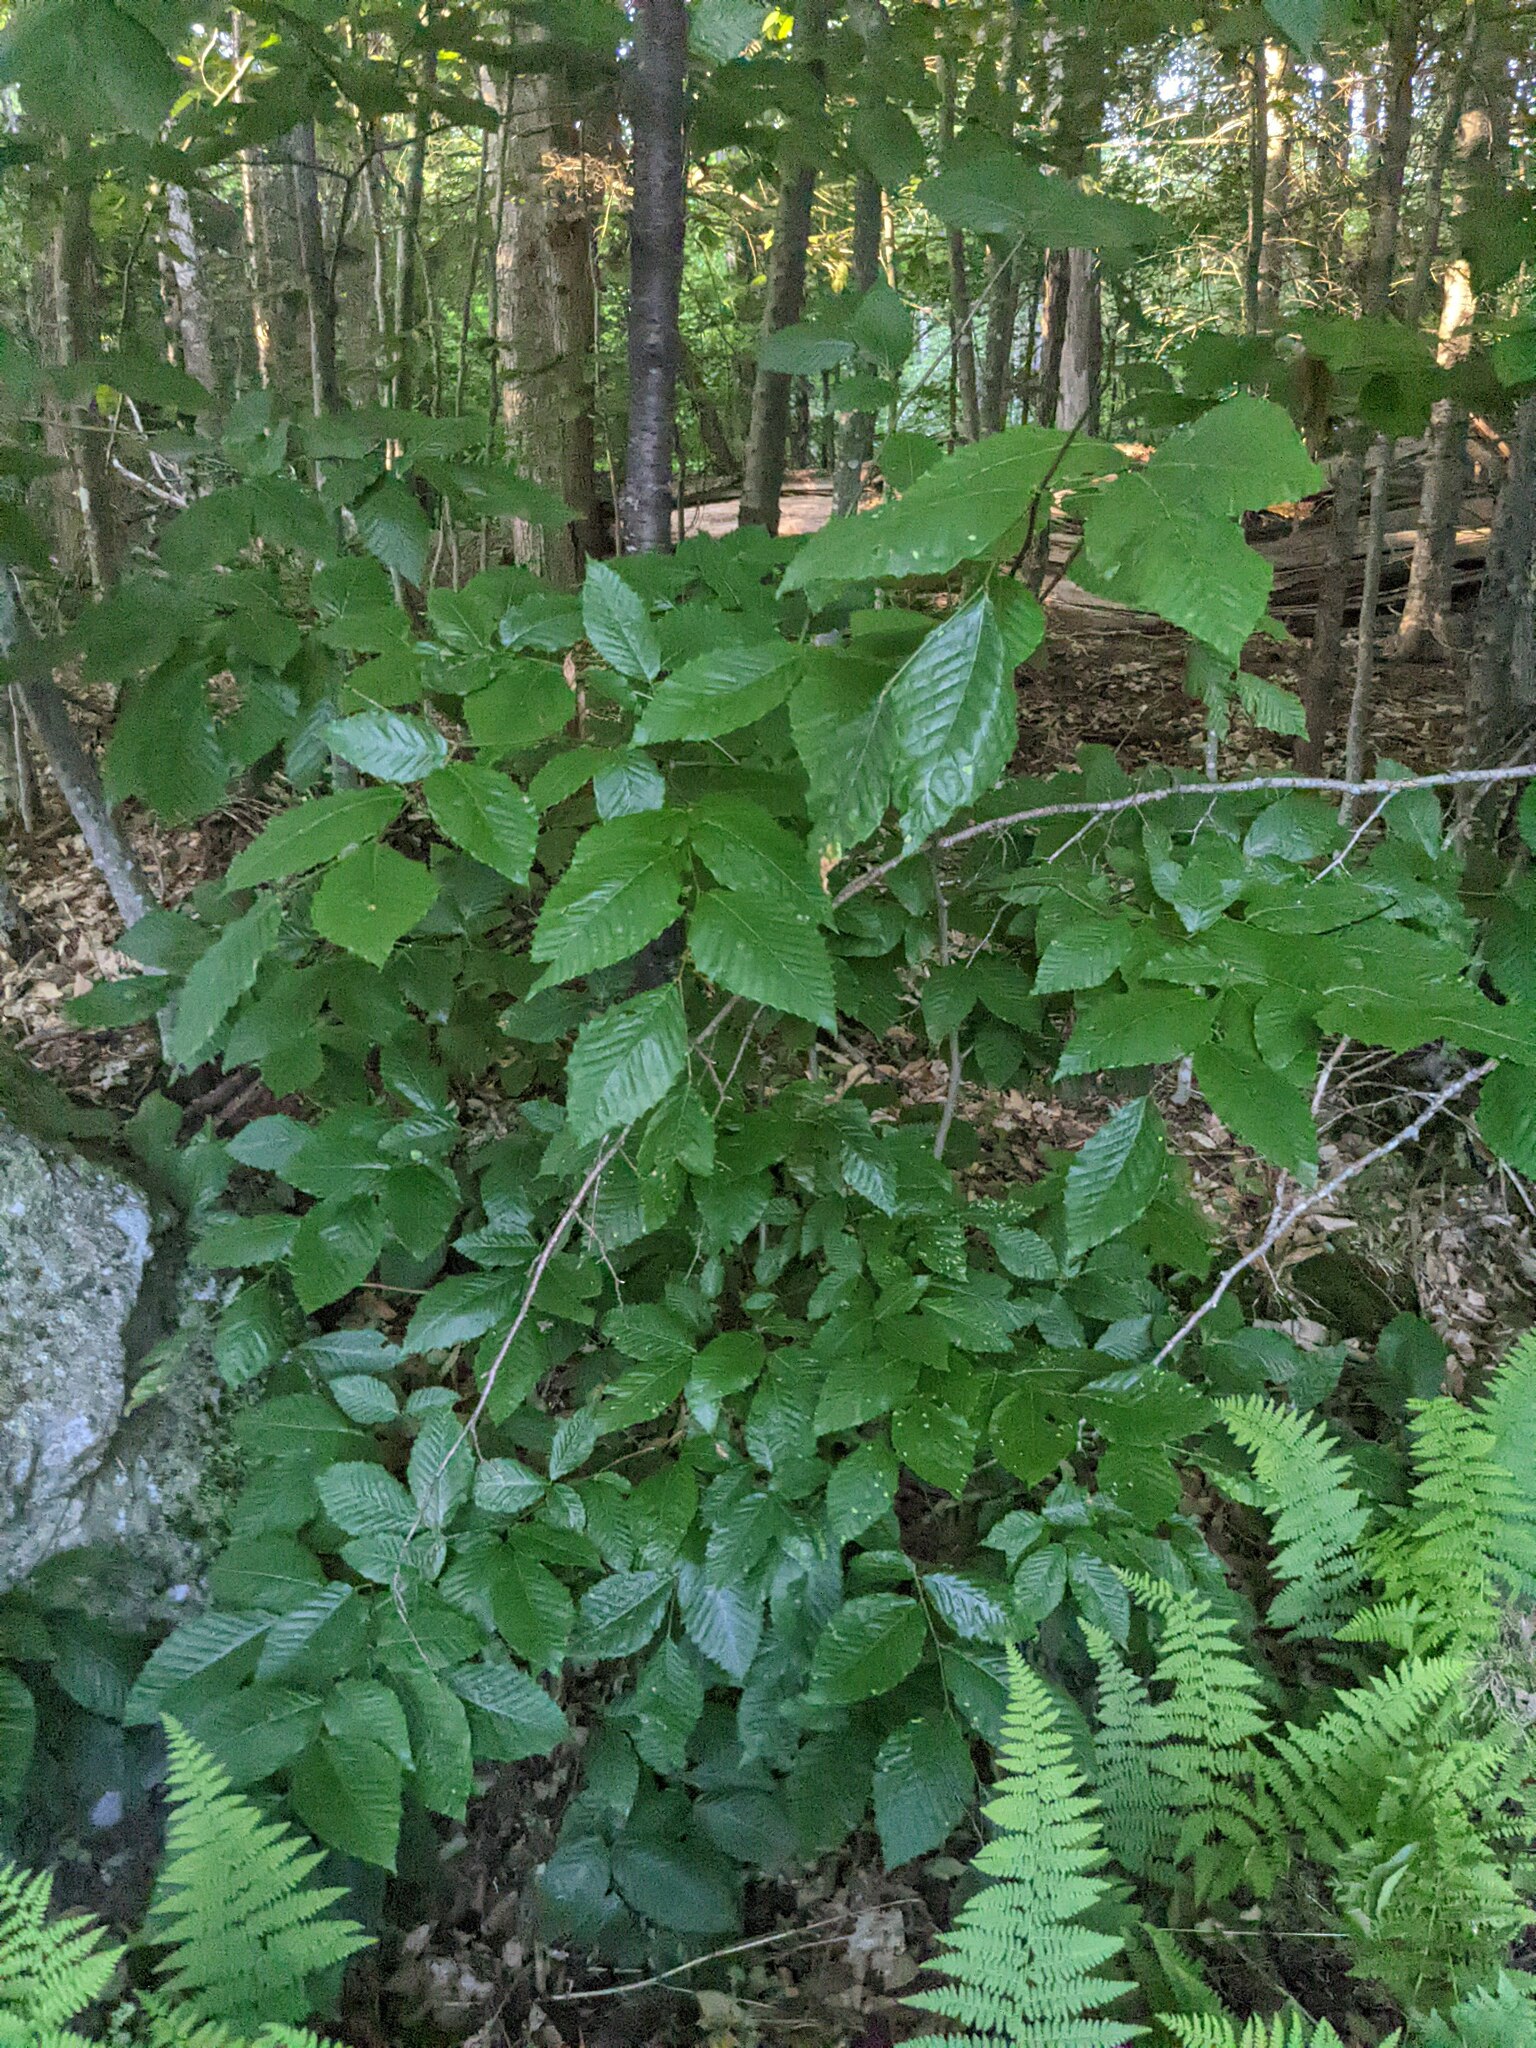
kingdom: Plantae
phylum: Tracheophyta
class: Magnoliopsida
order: Fagales
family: Fagaceae
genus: Fagus
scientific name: Fagus grandifolia
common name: American beech
